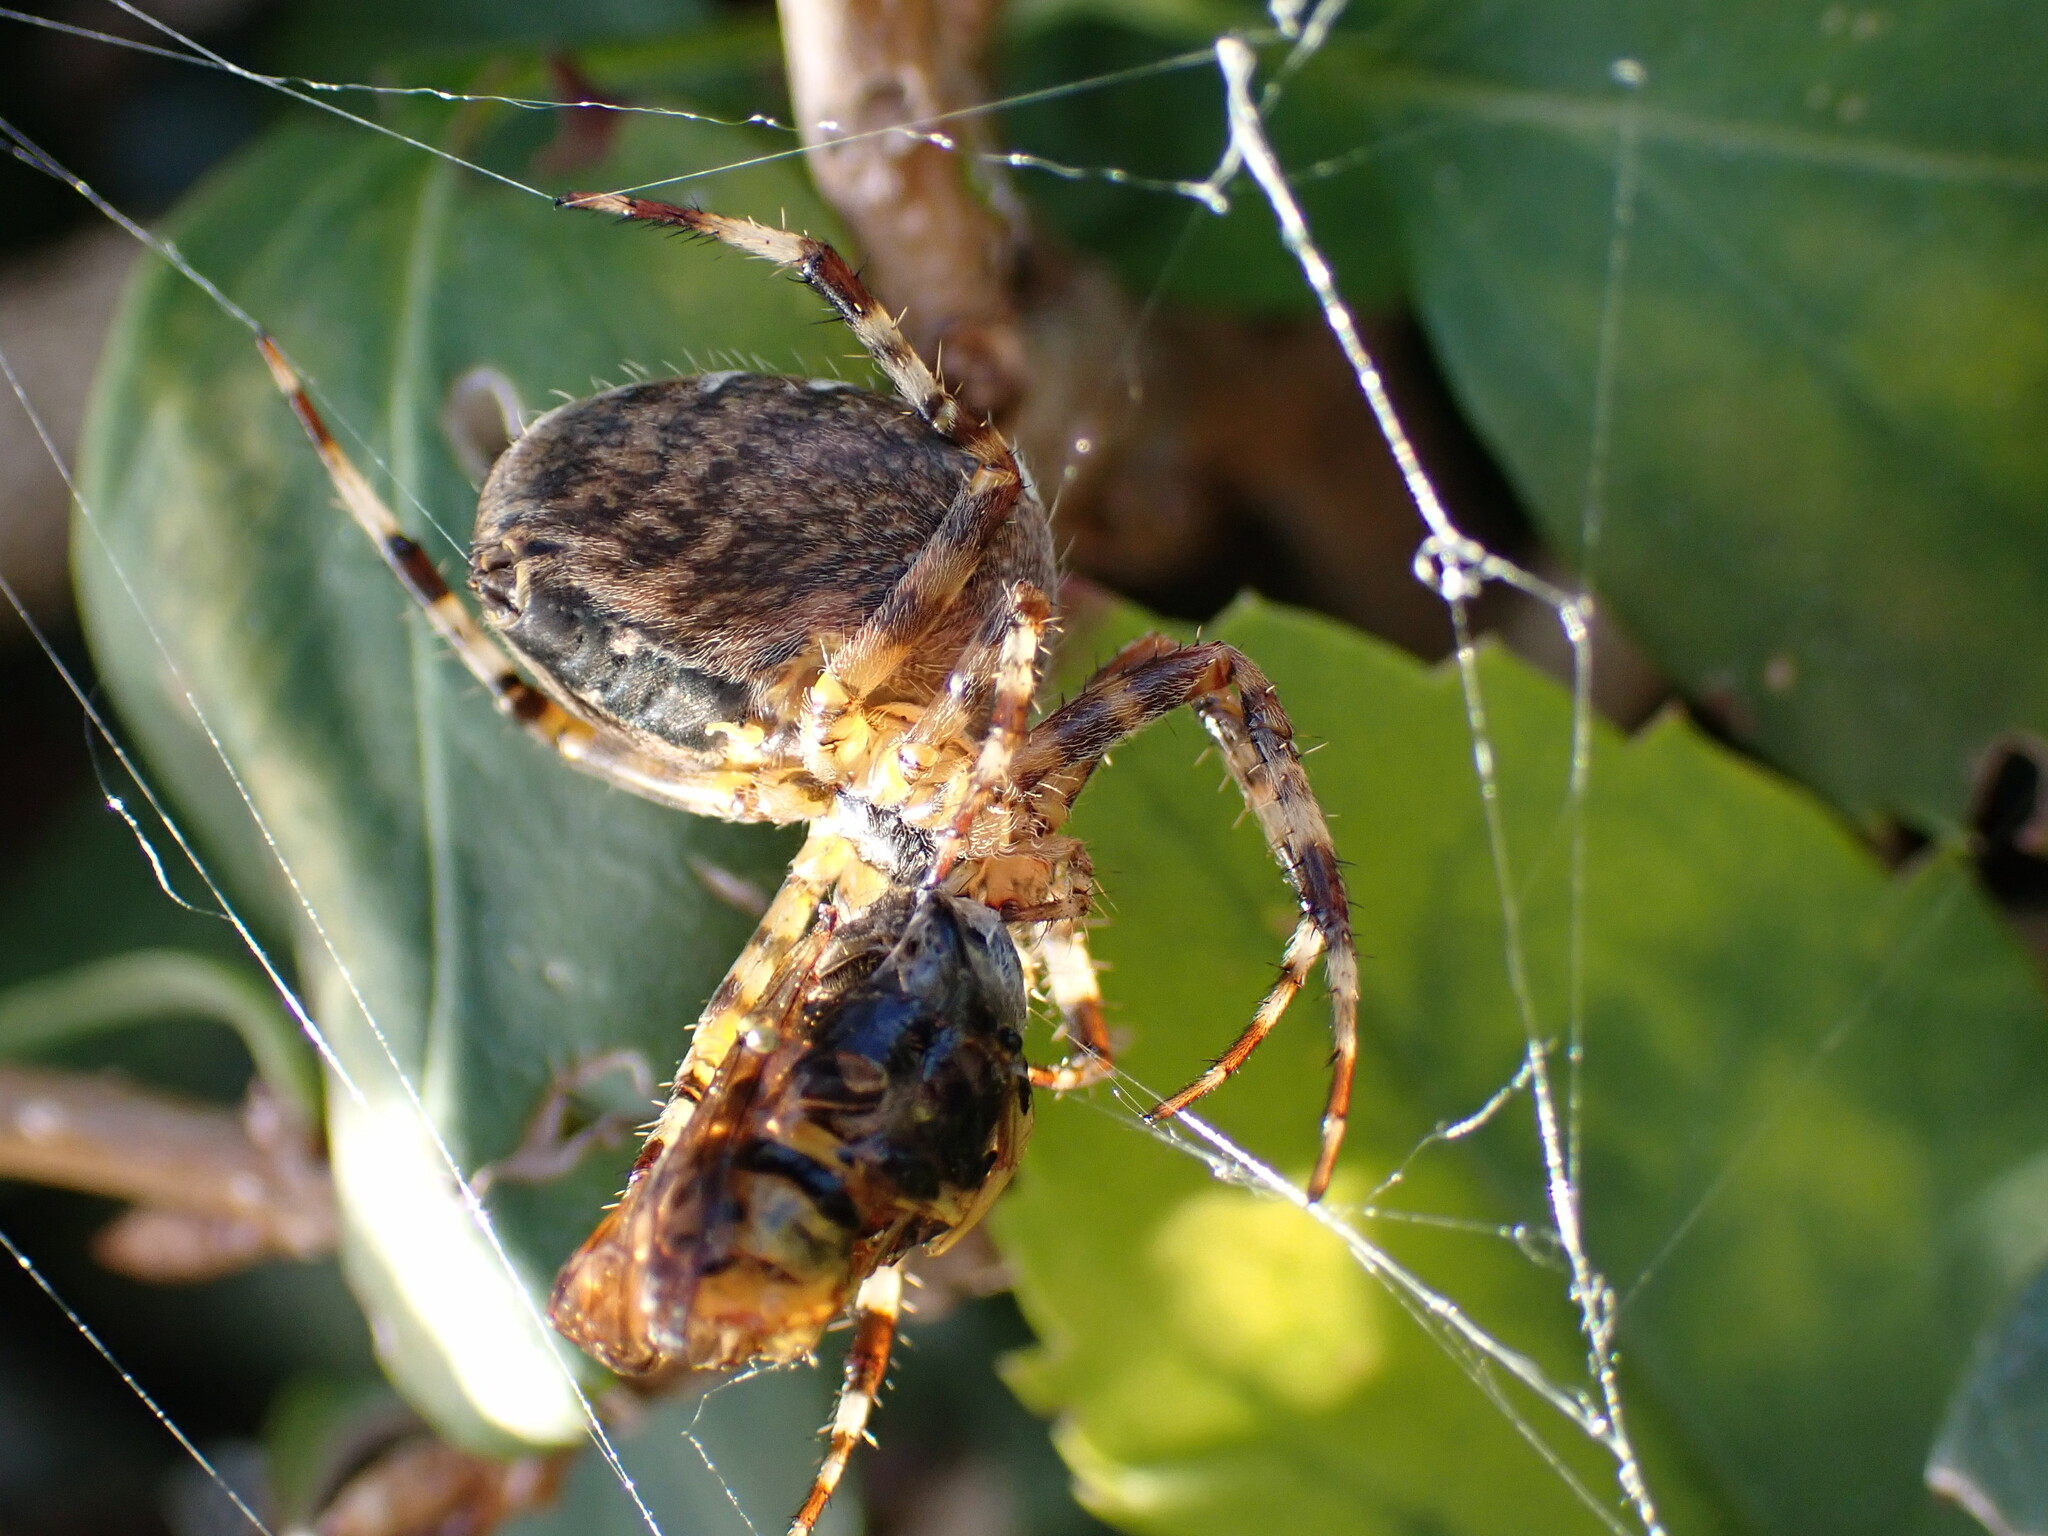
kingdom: Animalia
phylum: Arthropoda
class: Arachnida
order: Araneae
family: Araneidae
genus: Araneus
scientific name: Araneus diadematus
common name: Cross orbweaver
